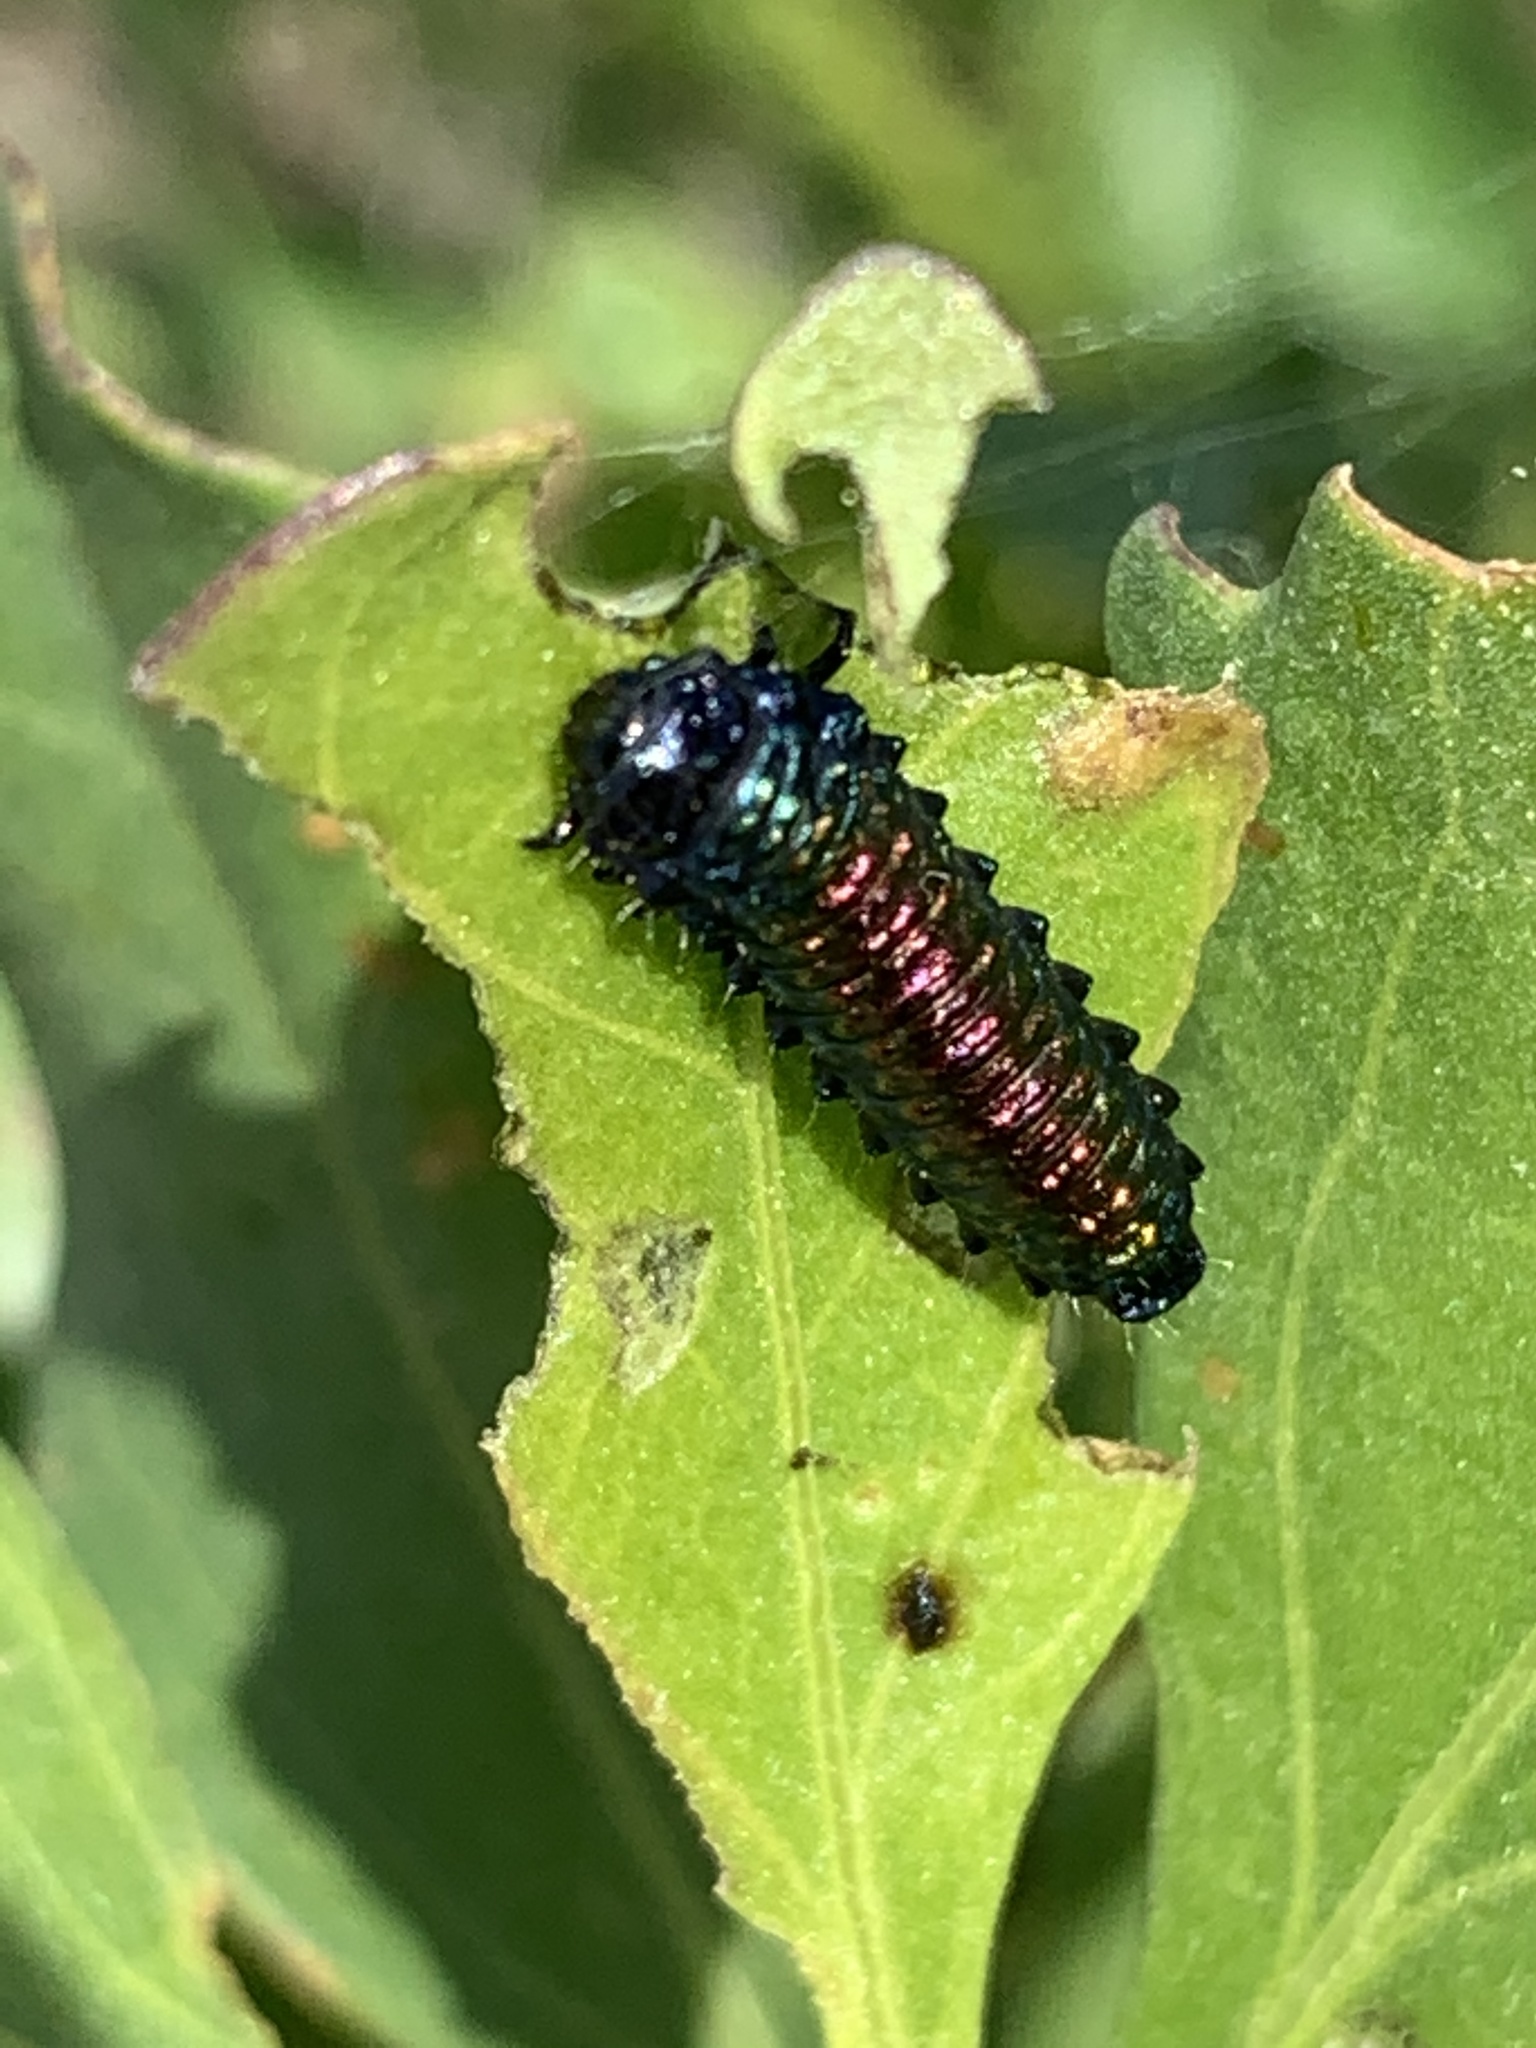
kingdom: Animalia
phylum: Arthropoda
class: Insecta
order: Coleoptera
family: Chrysomelidae
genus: Trirhabda
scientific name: Trirhabda bacharidis
